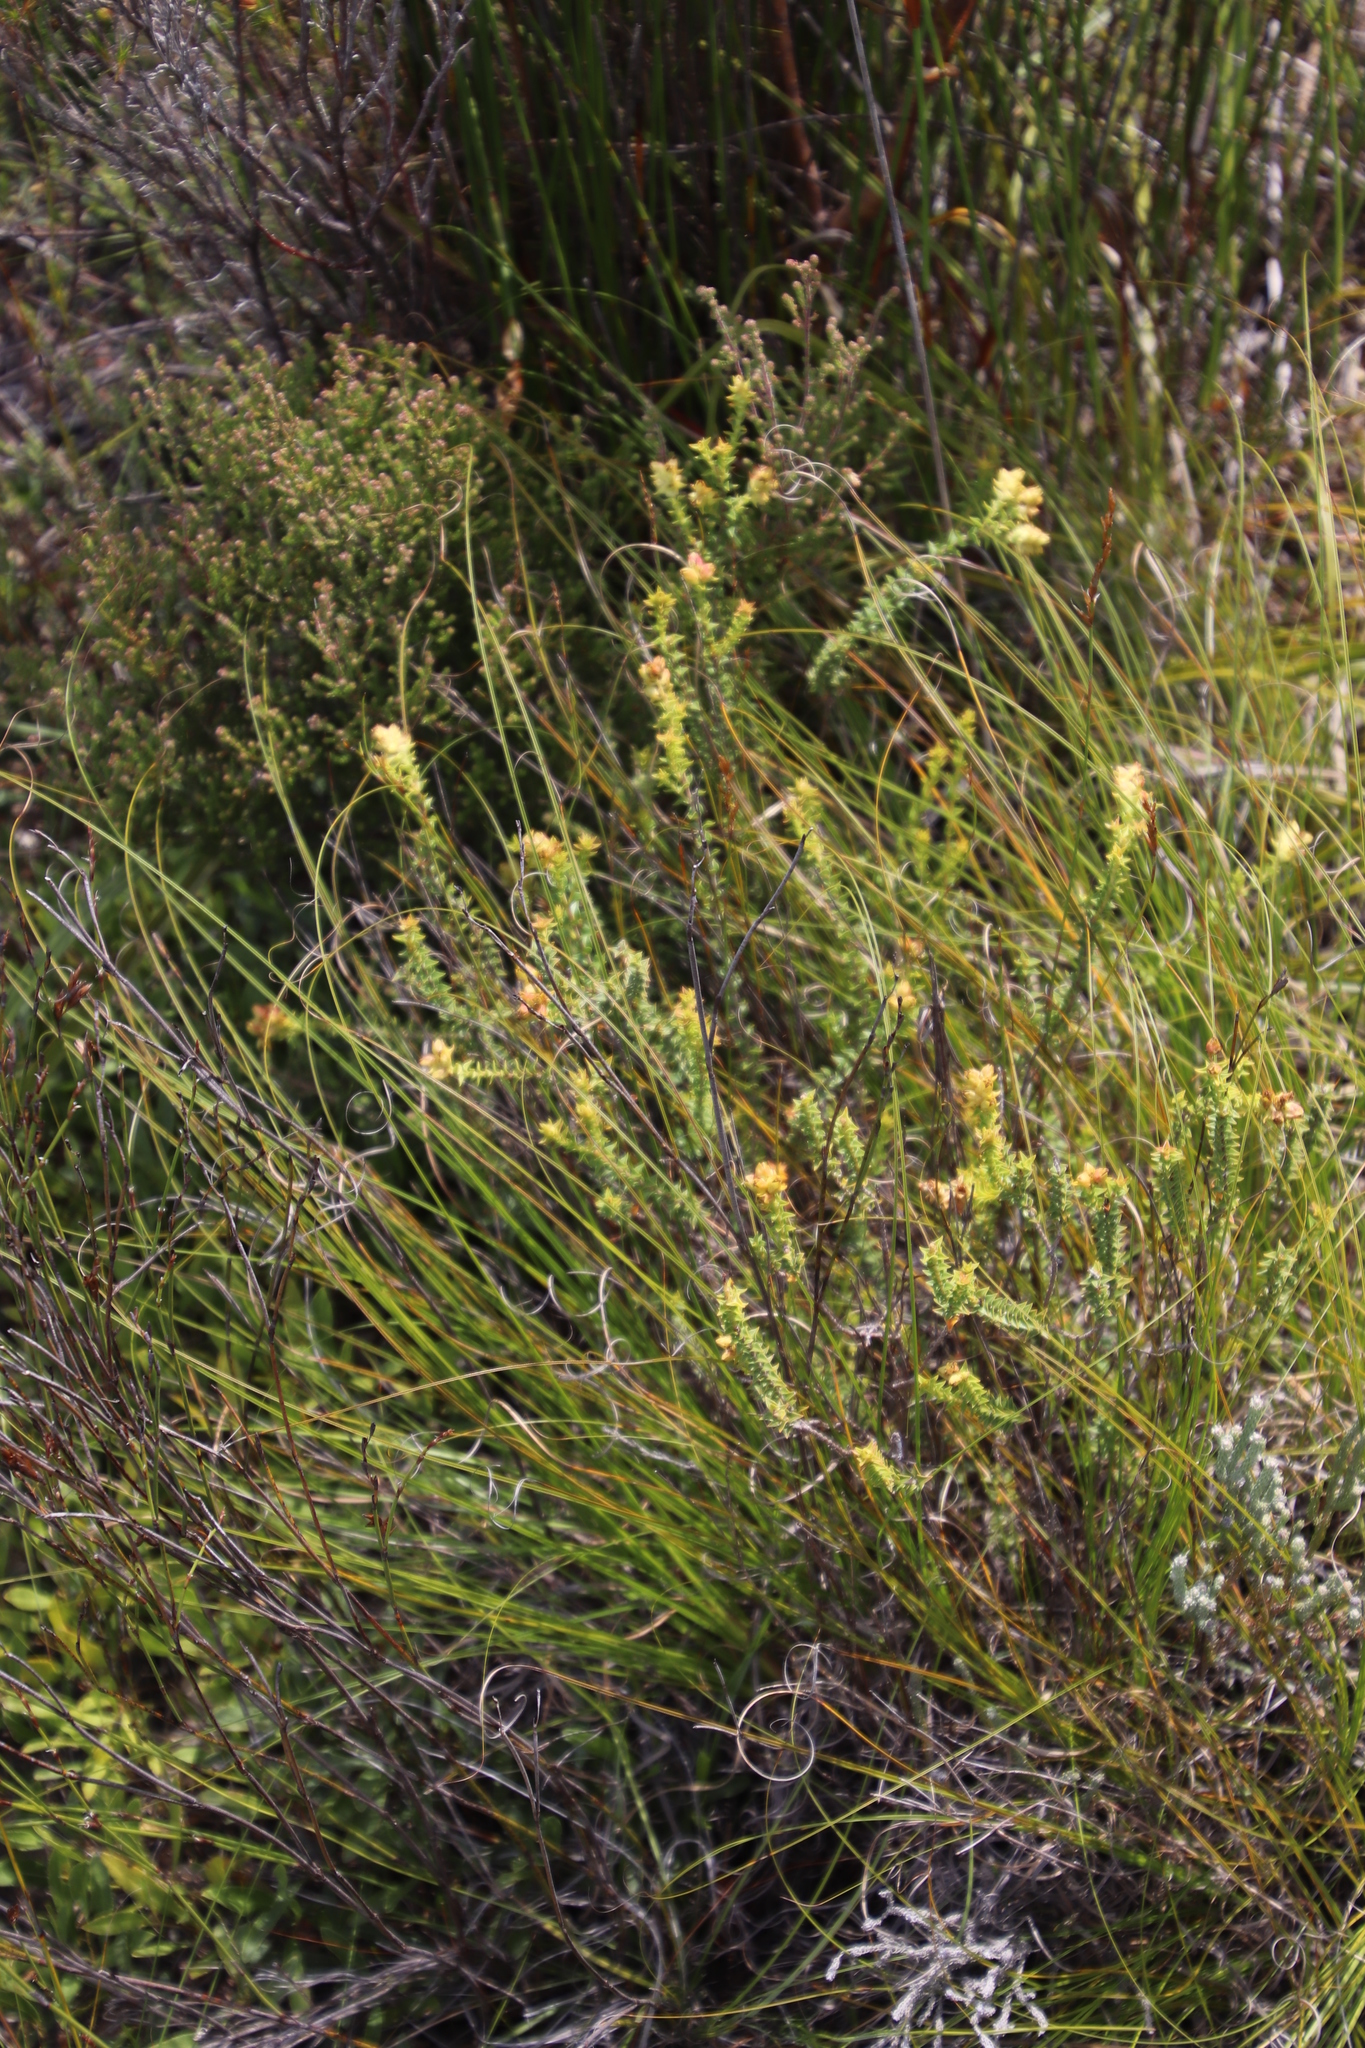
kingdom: Plantae
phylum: Tracheophyta
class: Magnoliopsida
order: Myrtales
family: Penaeaceae
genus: Penaea
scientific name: Penaea mucronata
